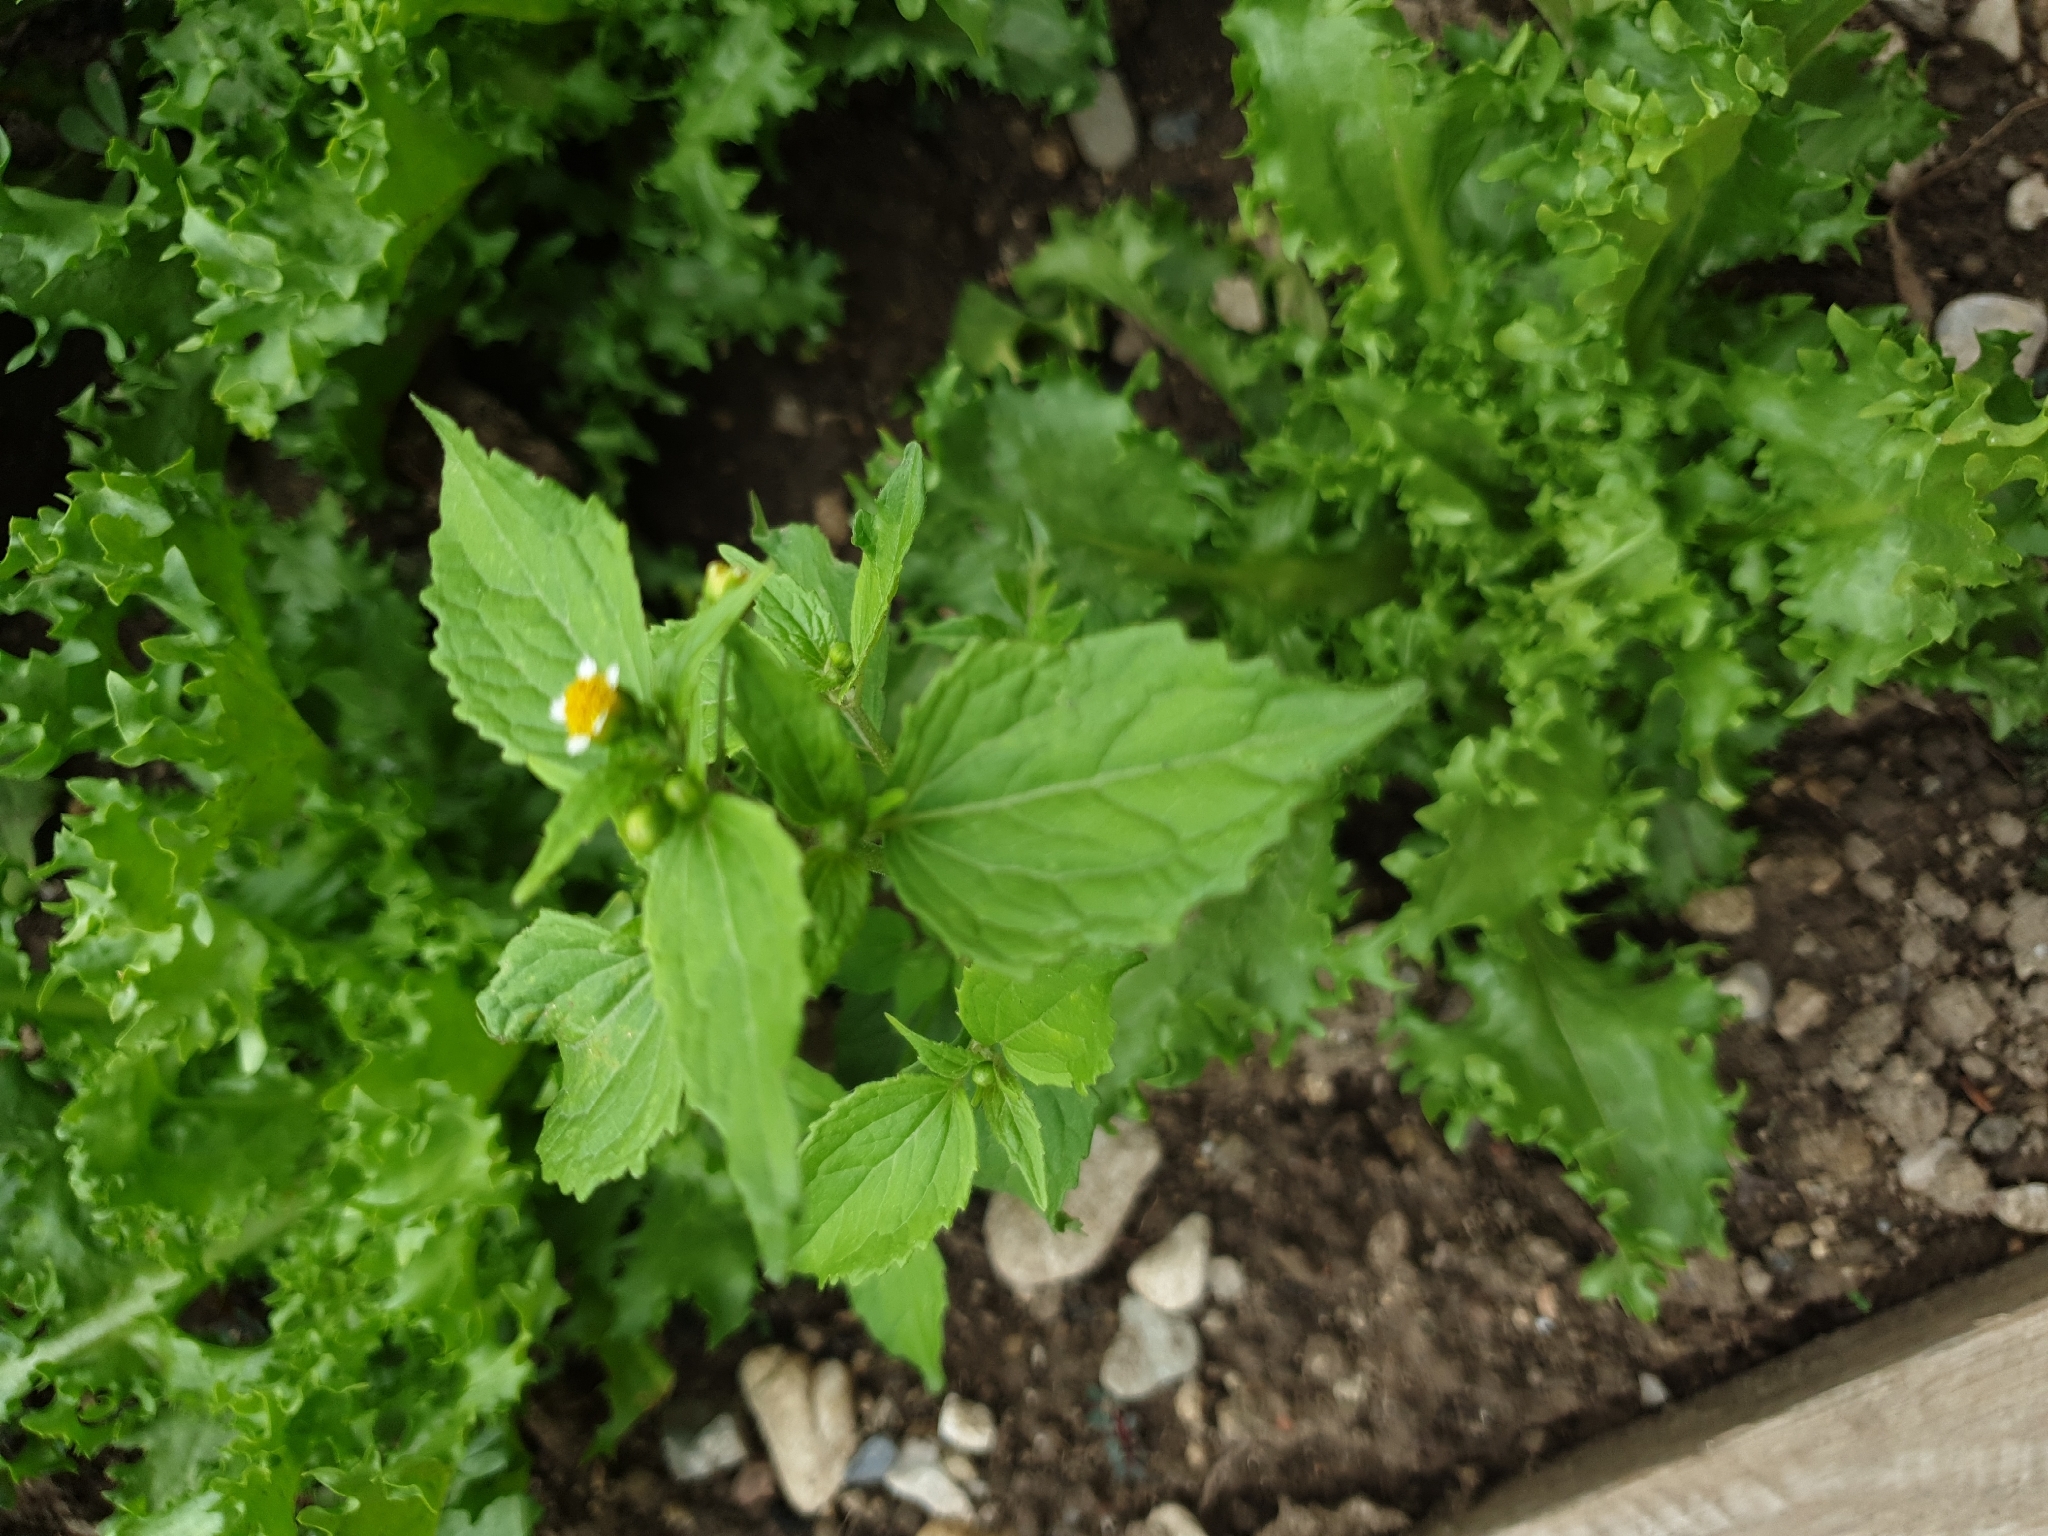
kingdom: Plantae
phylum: Tracheophyta
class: Magnoliopsida
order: Asterales
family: Asteraceae
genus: Galinsoga
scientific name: Galinsoga parviflora
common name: Gallant soldier
